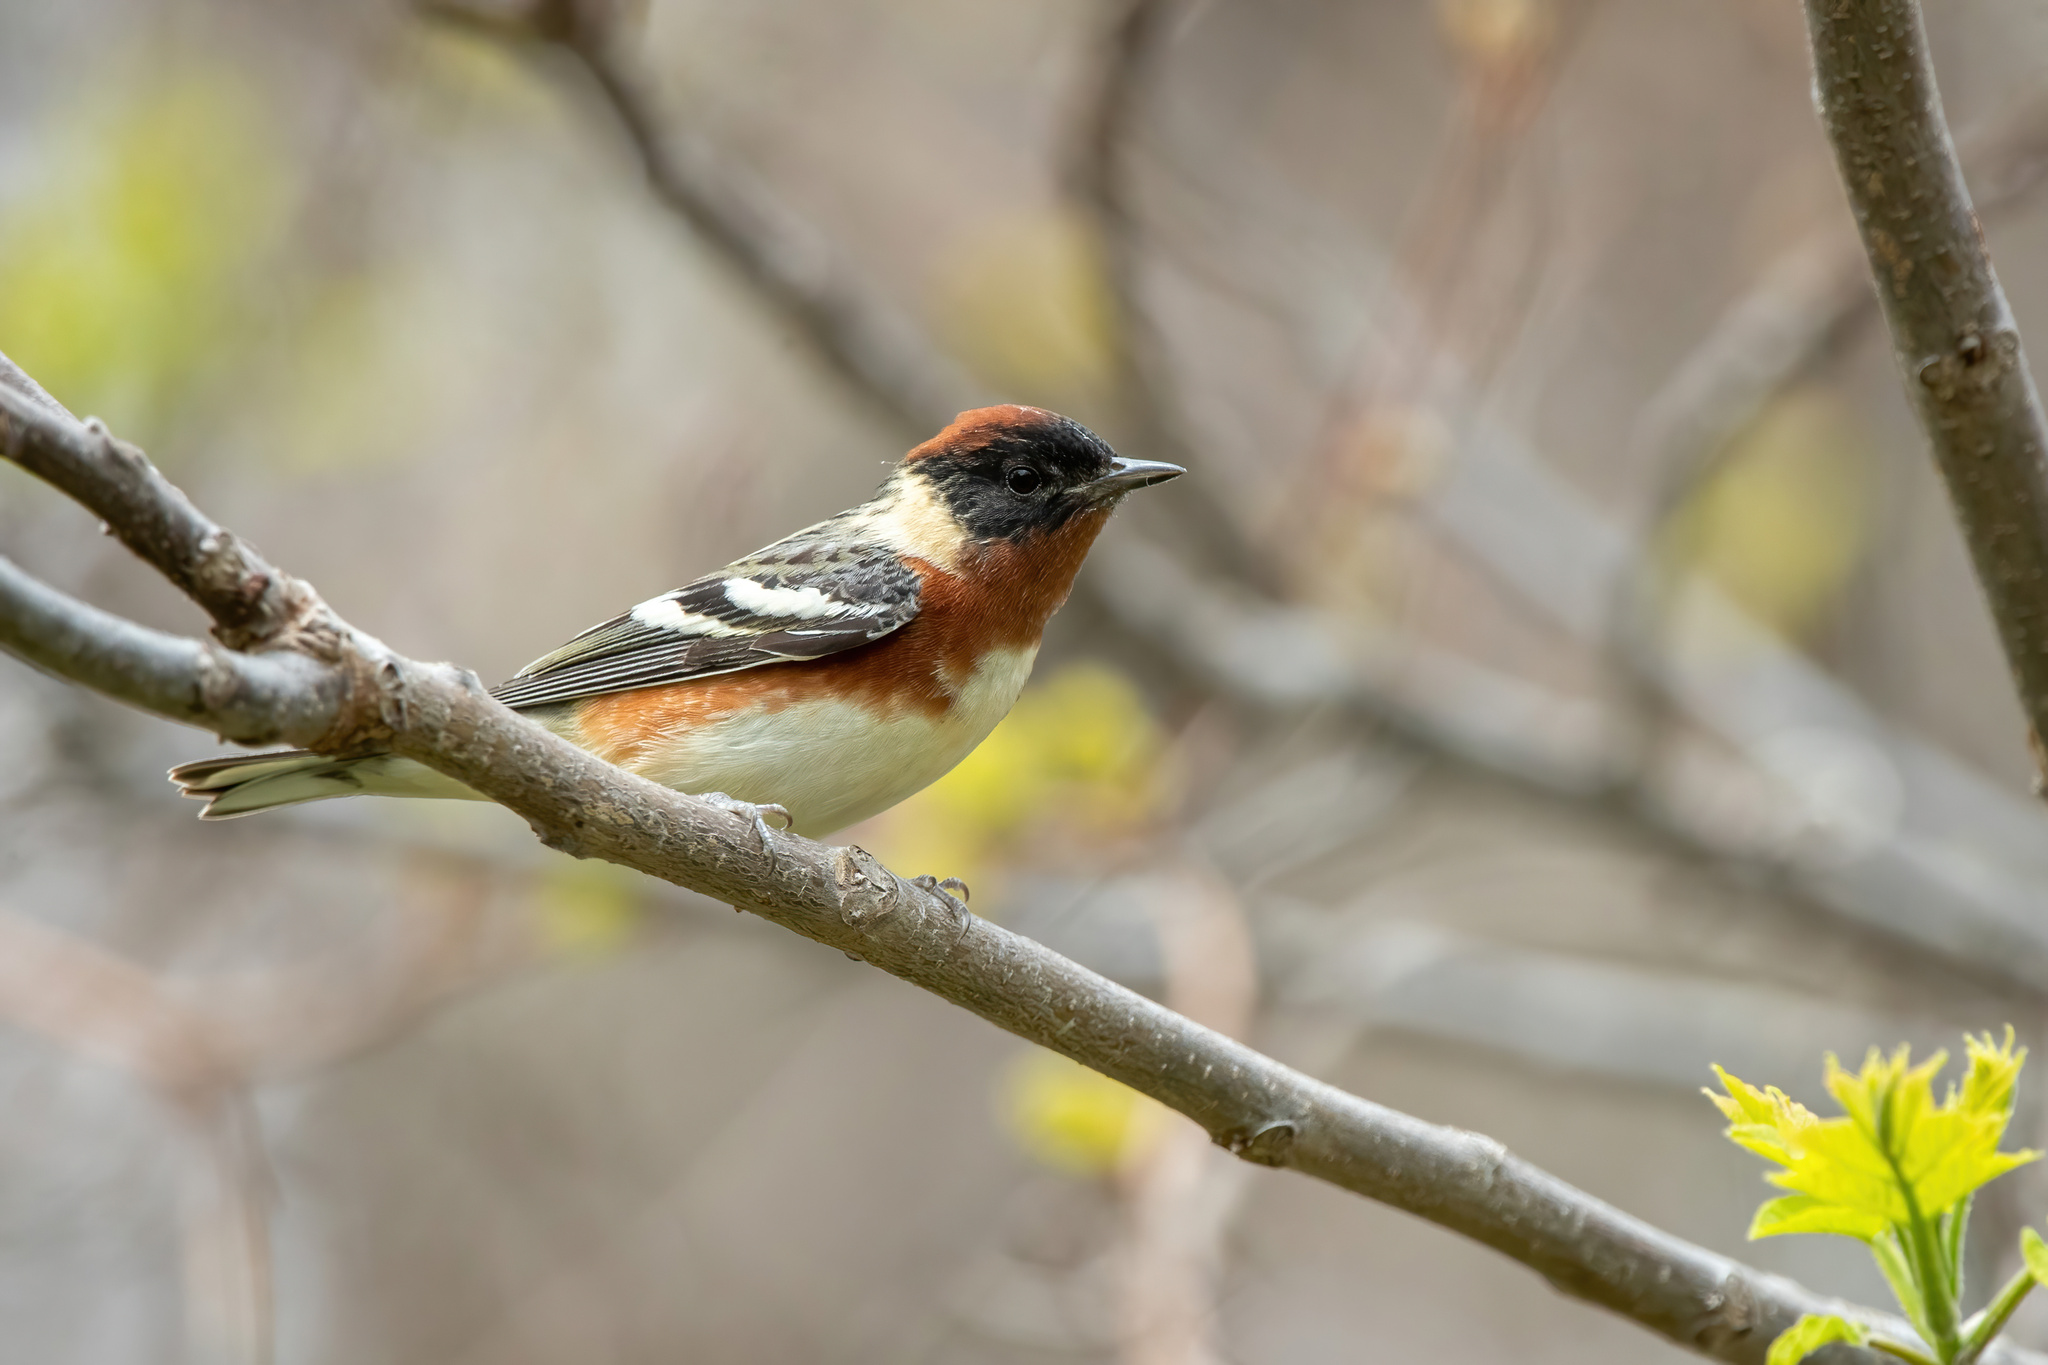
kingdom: Animalia
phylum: Chordata
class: Aves
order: Passeriformes
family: Parulidae
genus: Setophaga
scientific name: Setophaga castanea
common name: Bay-breasted warbler
